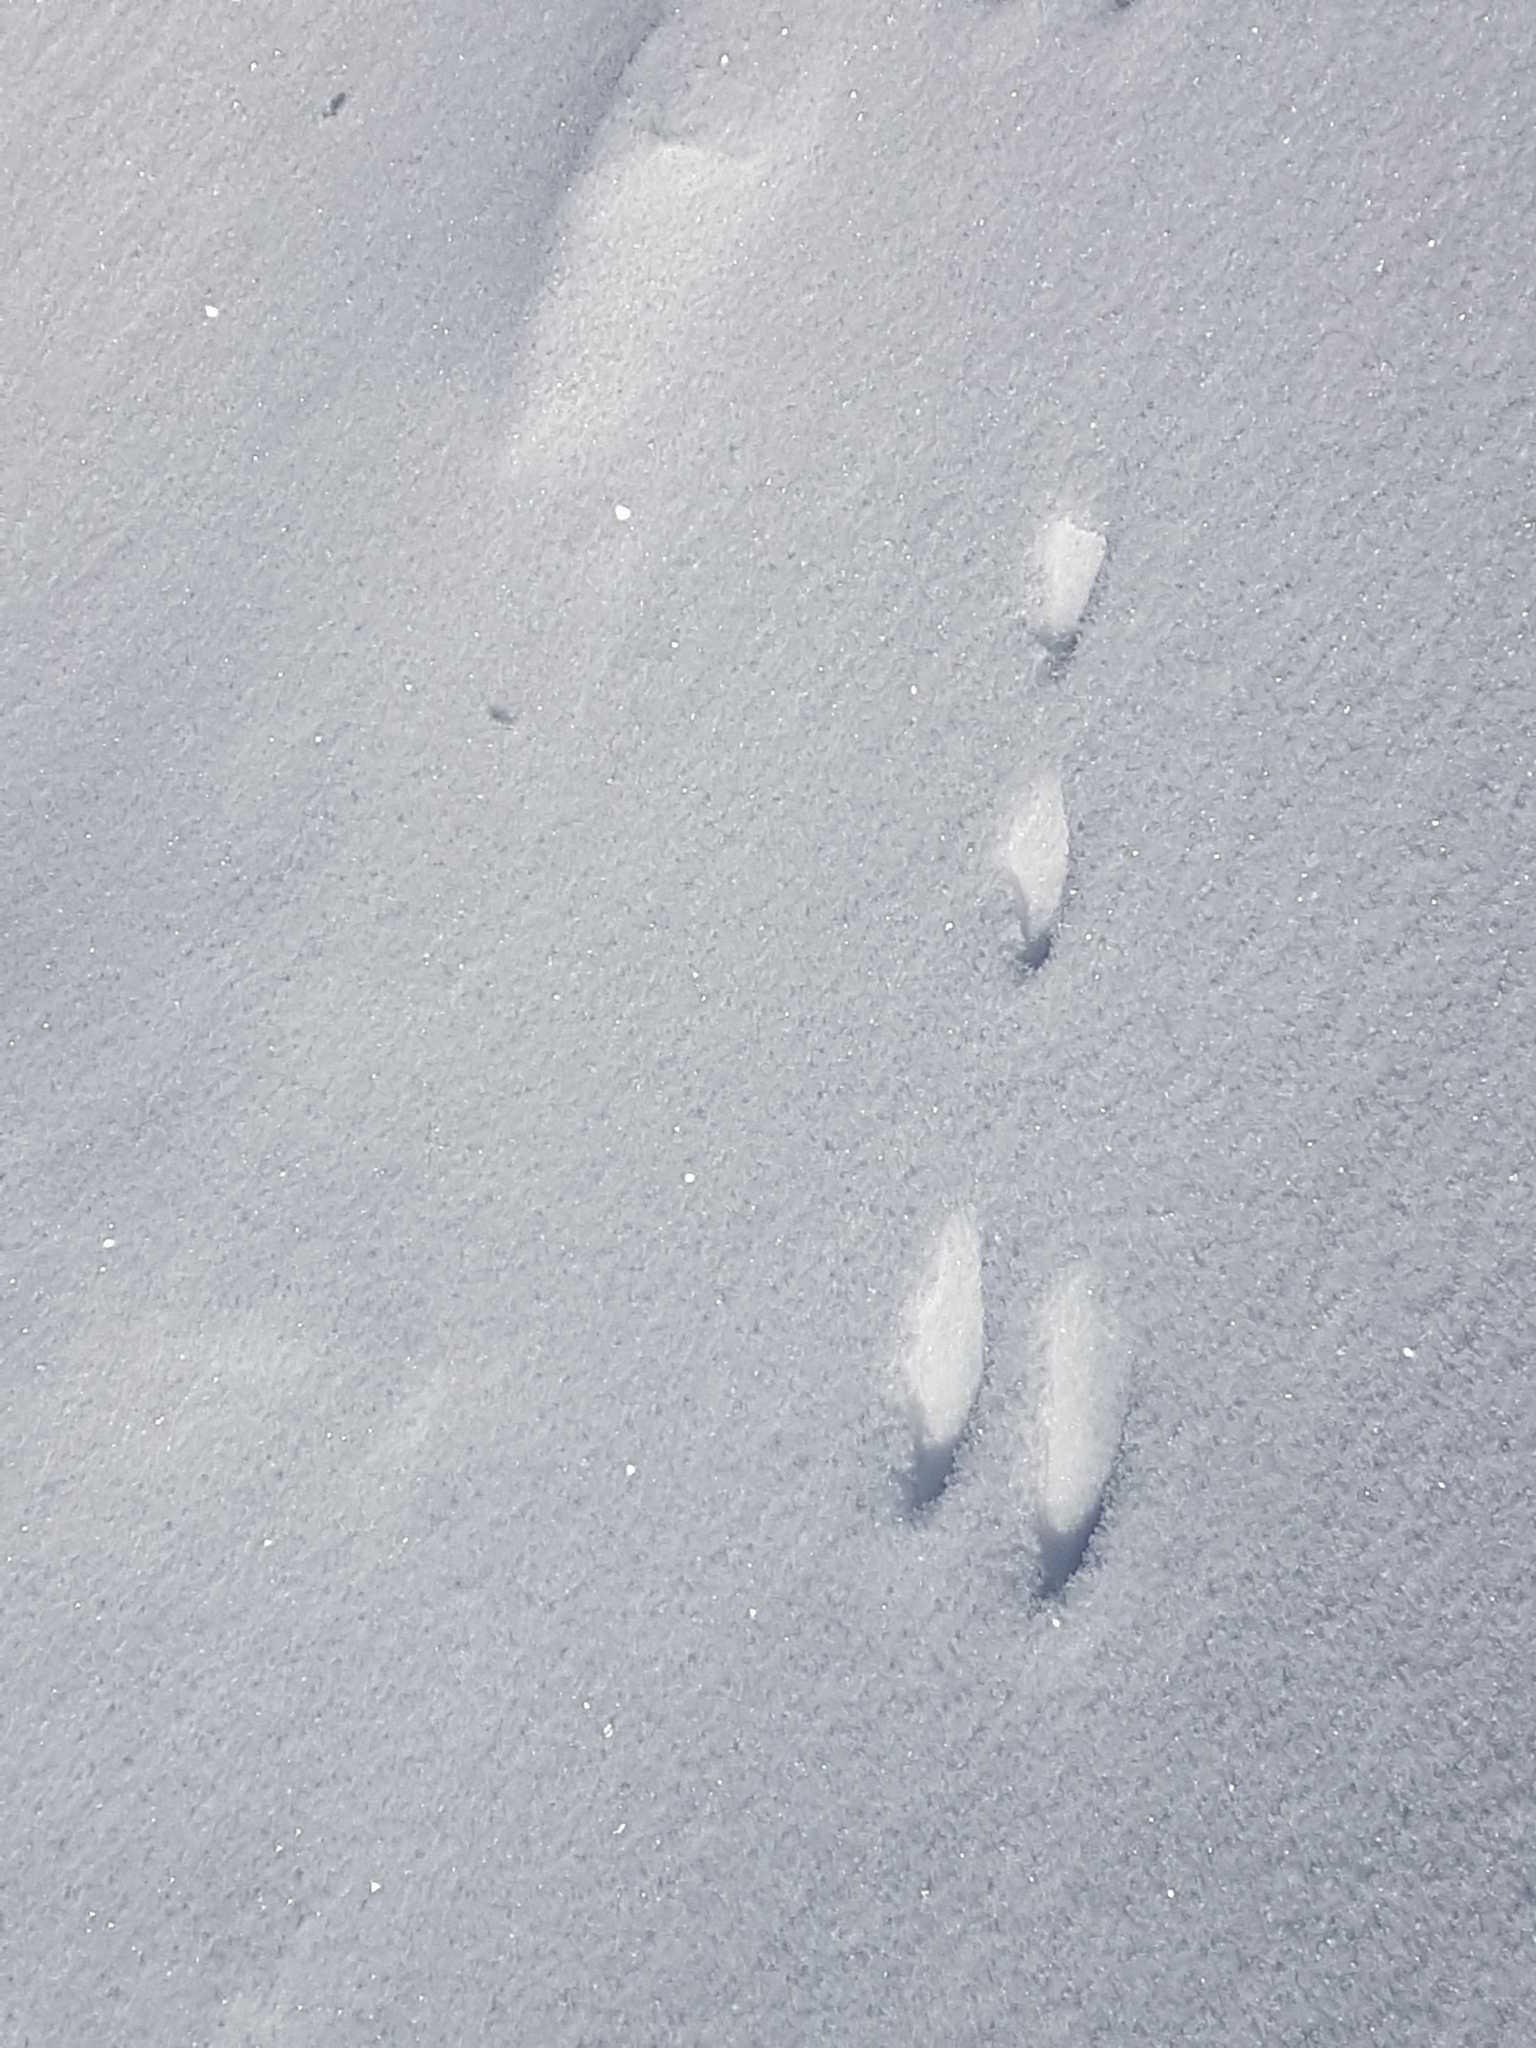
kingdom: Animalia
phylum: Chordata
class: Mammalia
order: Lagomorpha
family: Leporidae
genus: Lepus
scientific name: Lepus
